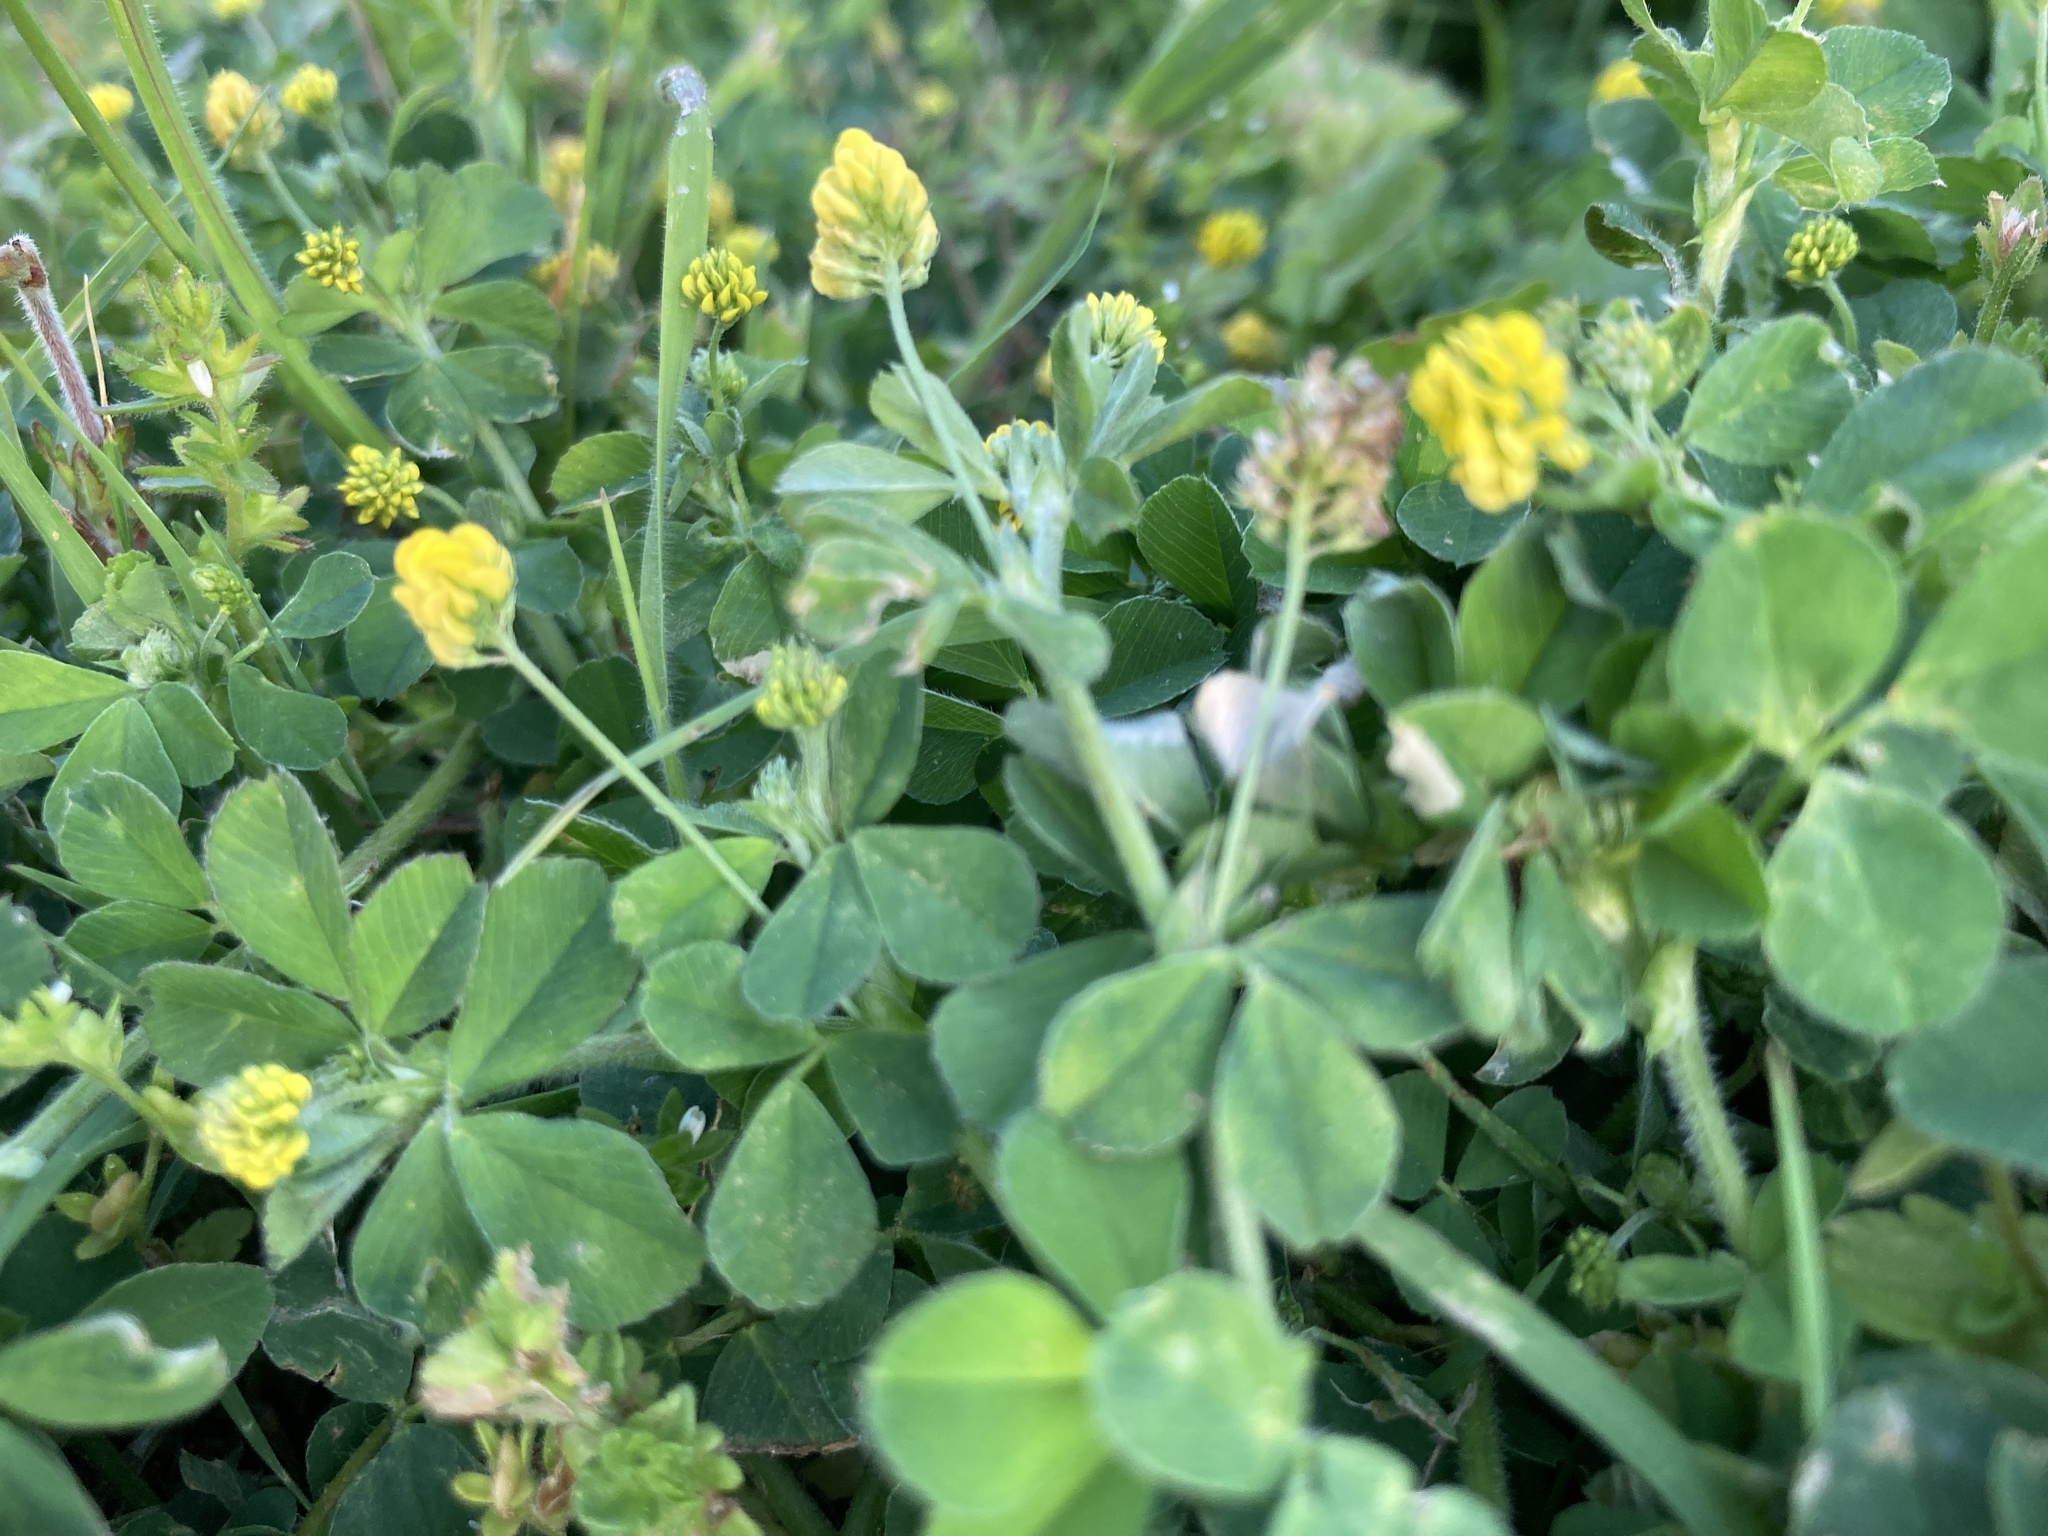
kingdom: Plantae
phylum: Tracheophyta
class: Magnoliopsida
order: Fabales
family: Fabaceae
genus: Medicago
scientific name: Medicago lupulina
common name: Black medick
